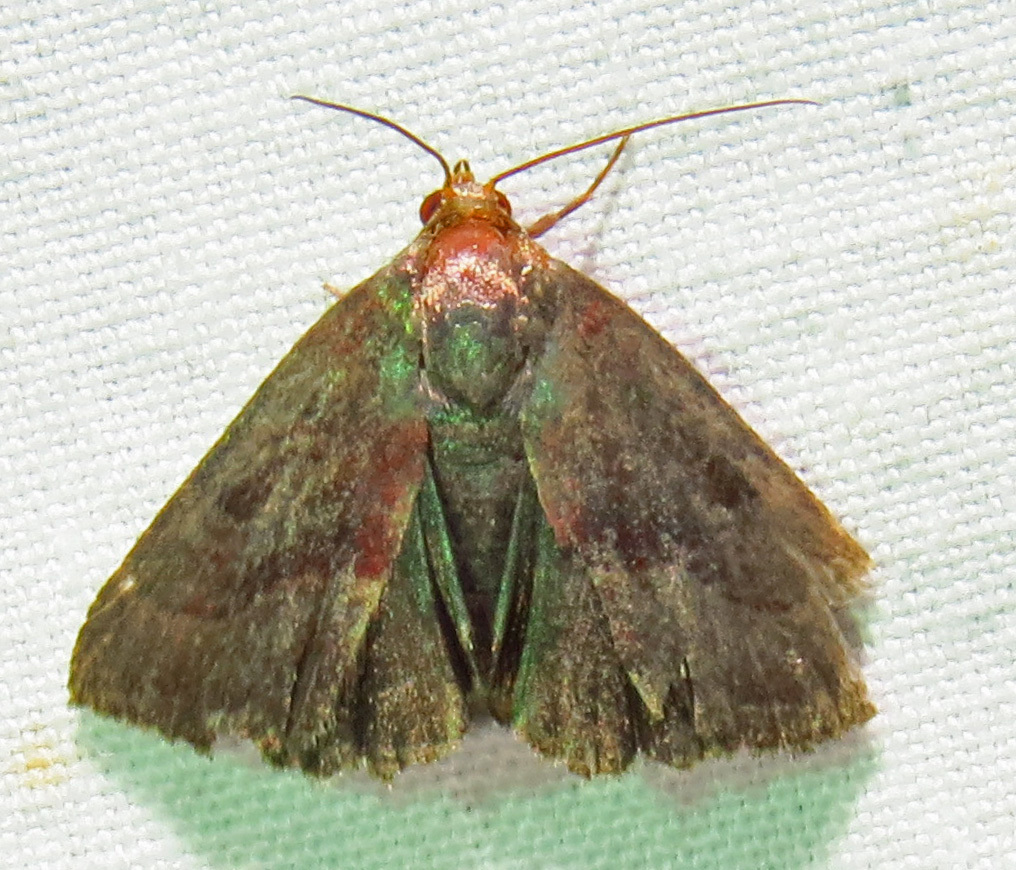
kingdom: Animalia
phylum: Arthropoda
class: Insecta
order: Lepidoptera
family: Noctuidae
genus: Galgula
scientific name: Galgula partita
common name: Wedgeling
